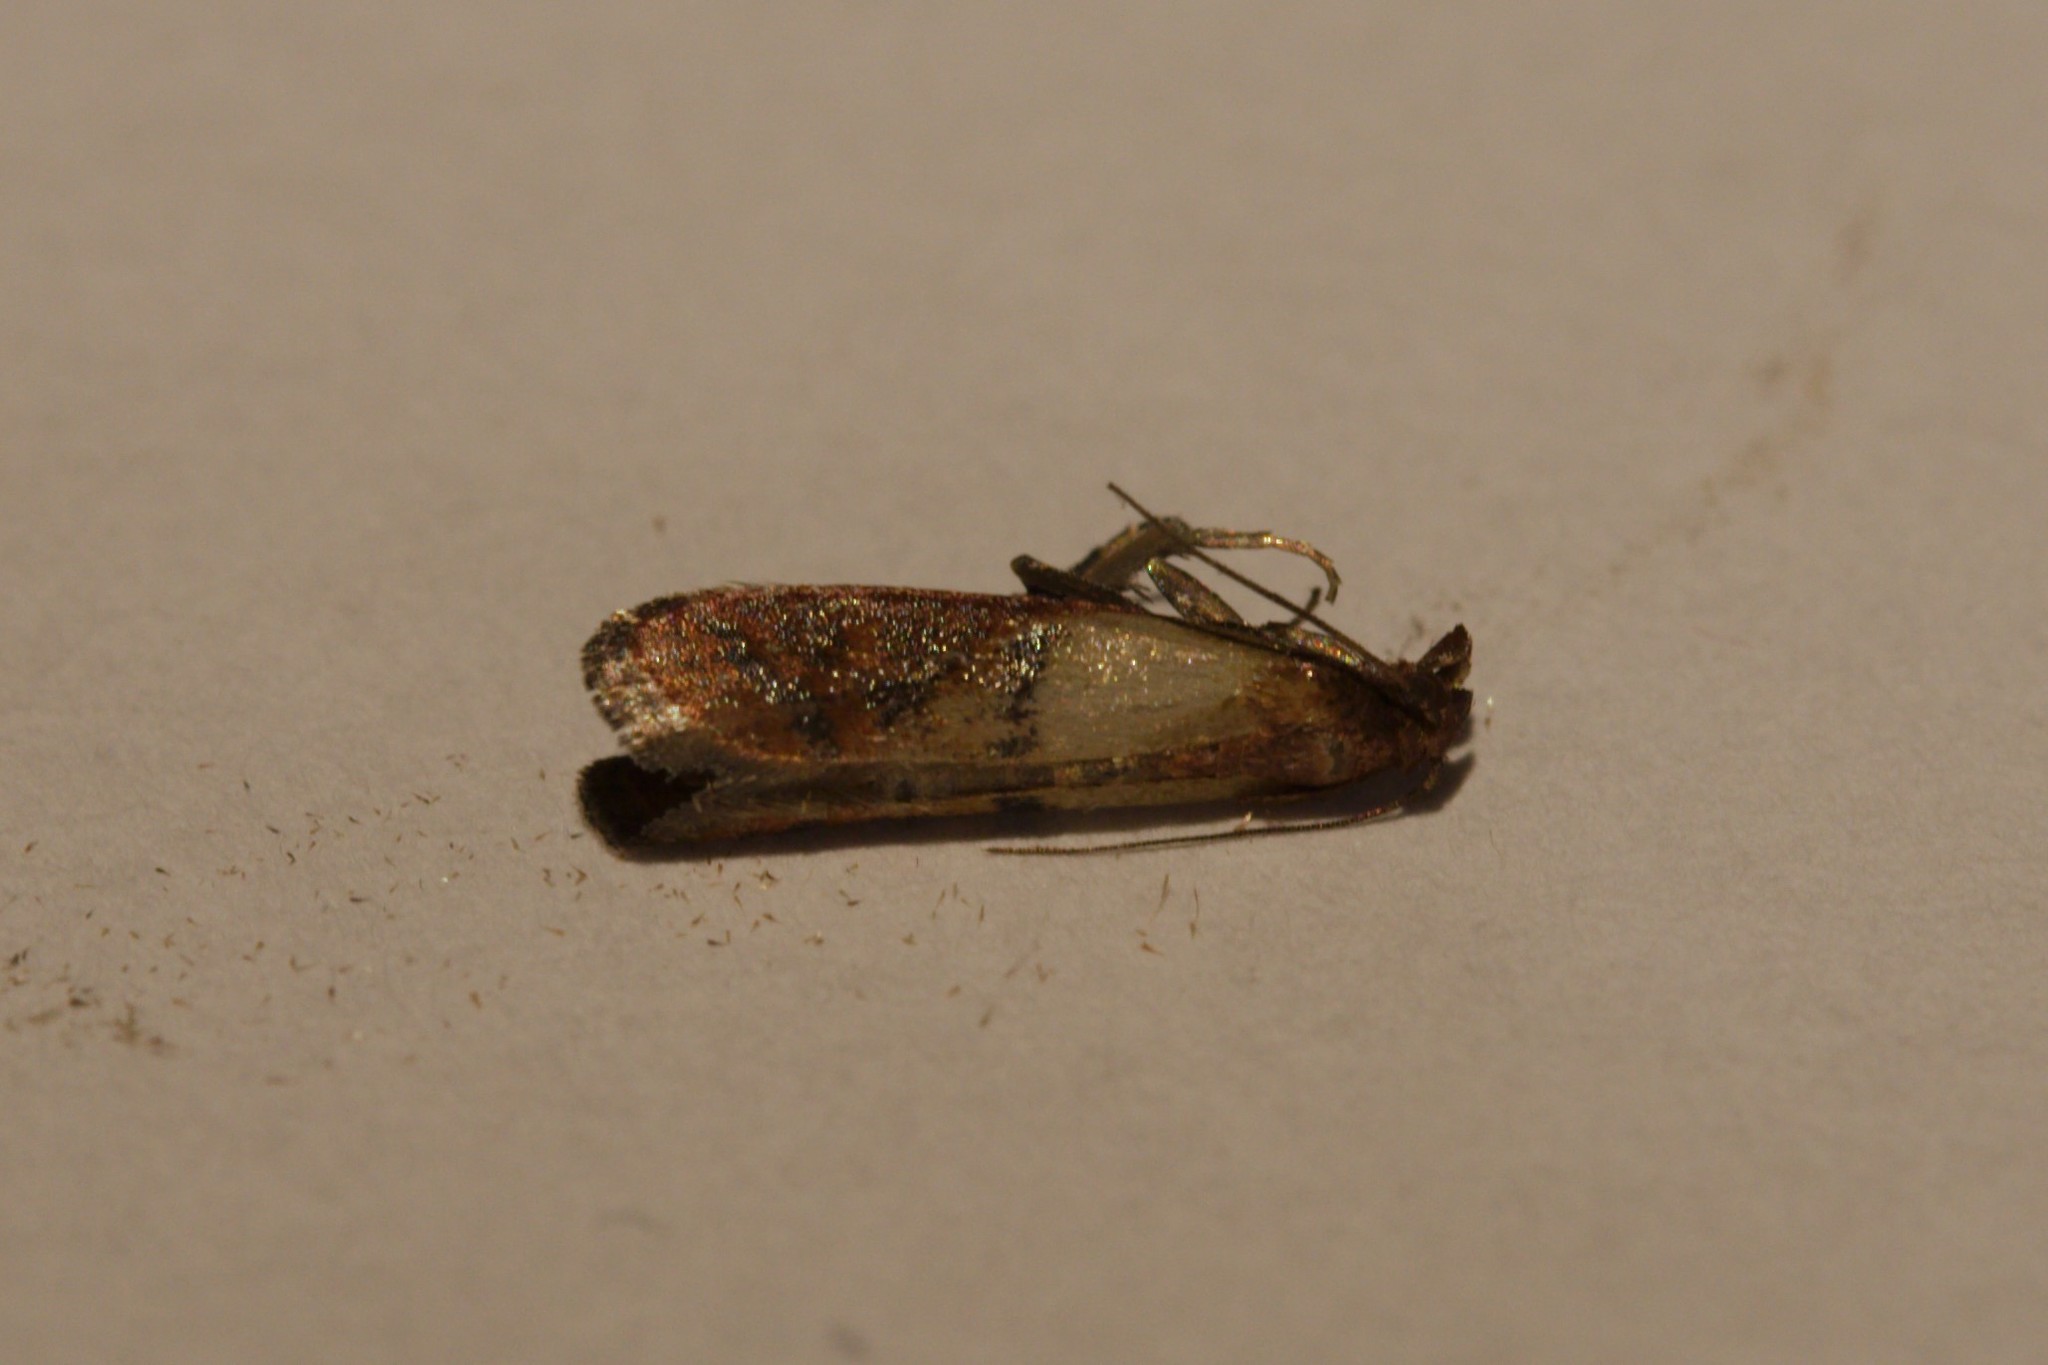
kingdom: Animalia
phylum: Arthropoda
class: Insecta
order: Lepidoptera
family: Pyralidae
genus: Plodia
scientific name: Plodia interpunctella
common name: Indian meal moth
